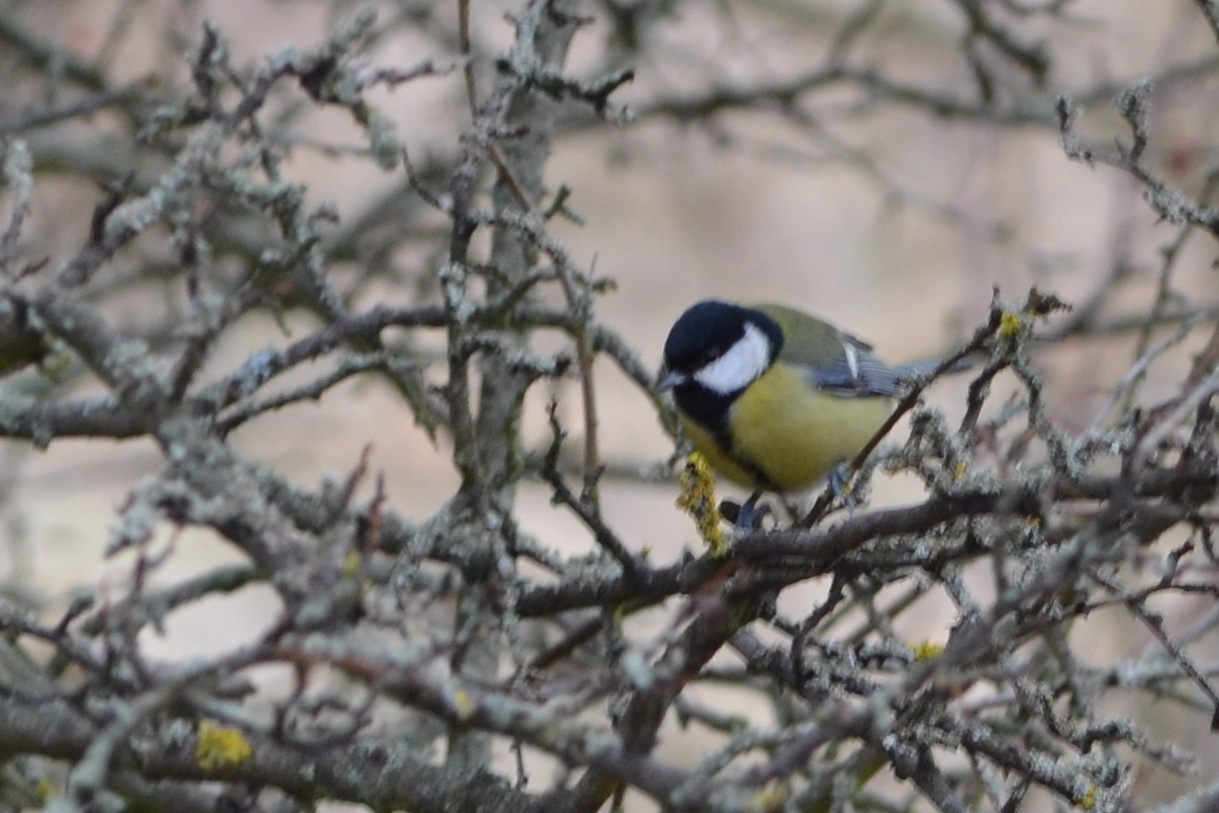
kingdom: Animalia
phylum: Chordata
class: Aves
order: Passeriformes
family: Paridae
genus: Parus
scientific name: Parus major
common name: Great tit
